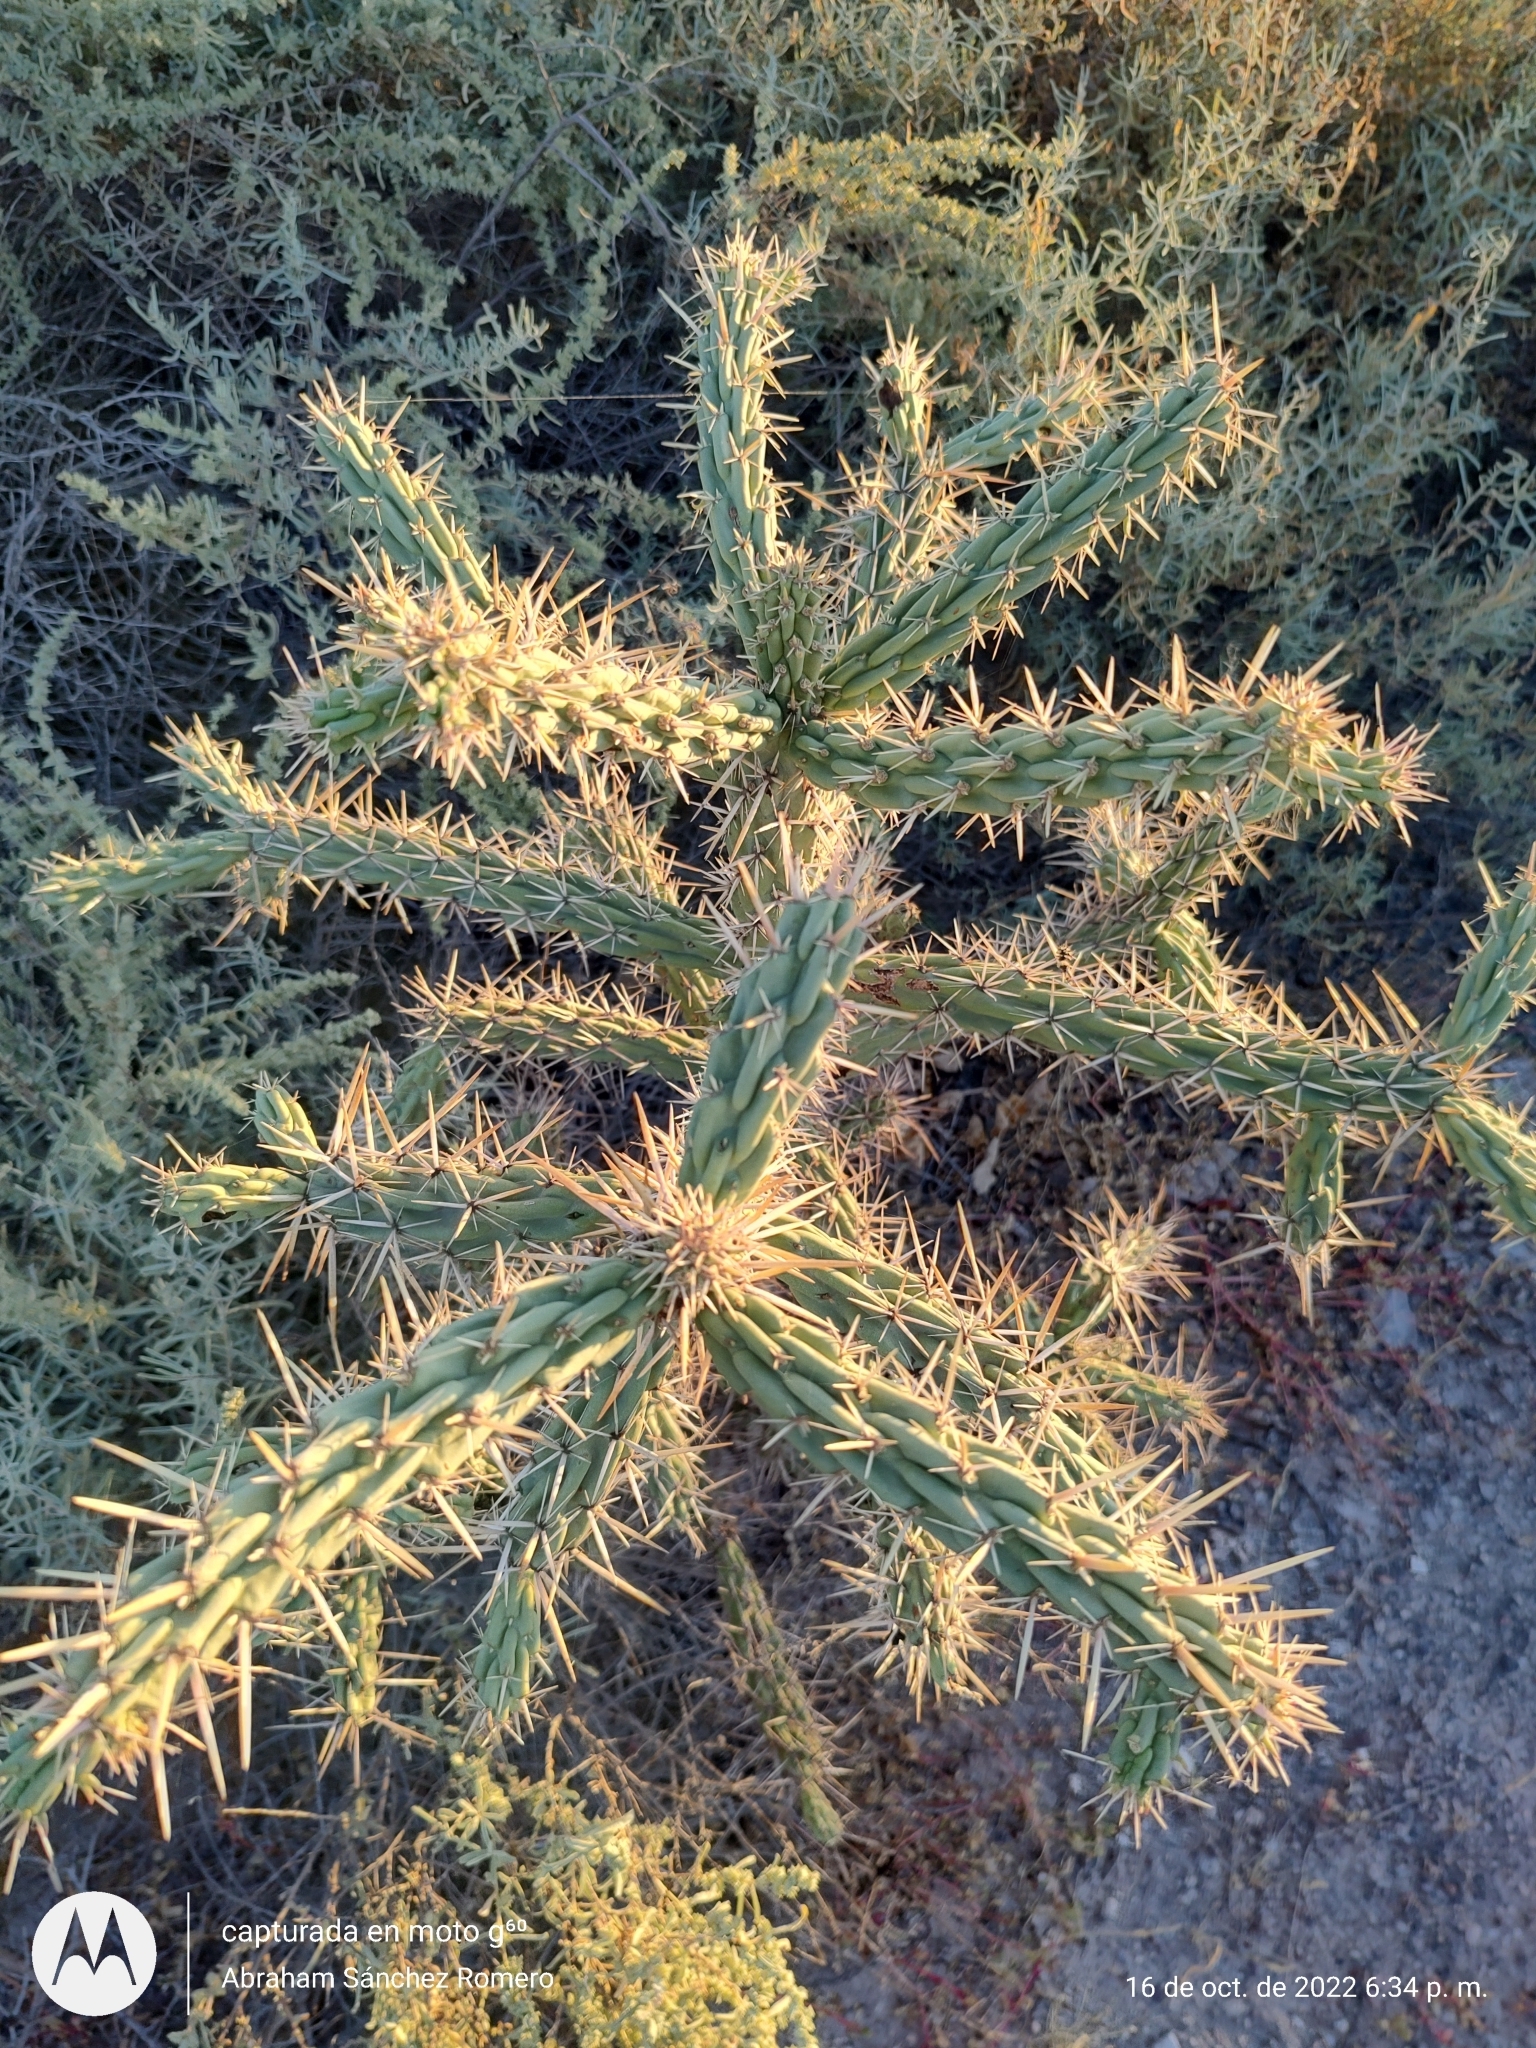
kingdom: Plantae
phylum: Tracheophyta
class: Magnoliopsida
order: Caryophyllales
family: Cactaceae
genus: Cylindropuntia
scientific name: Cylindropuntia cholla
